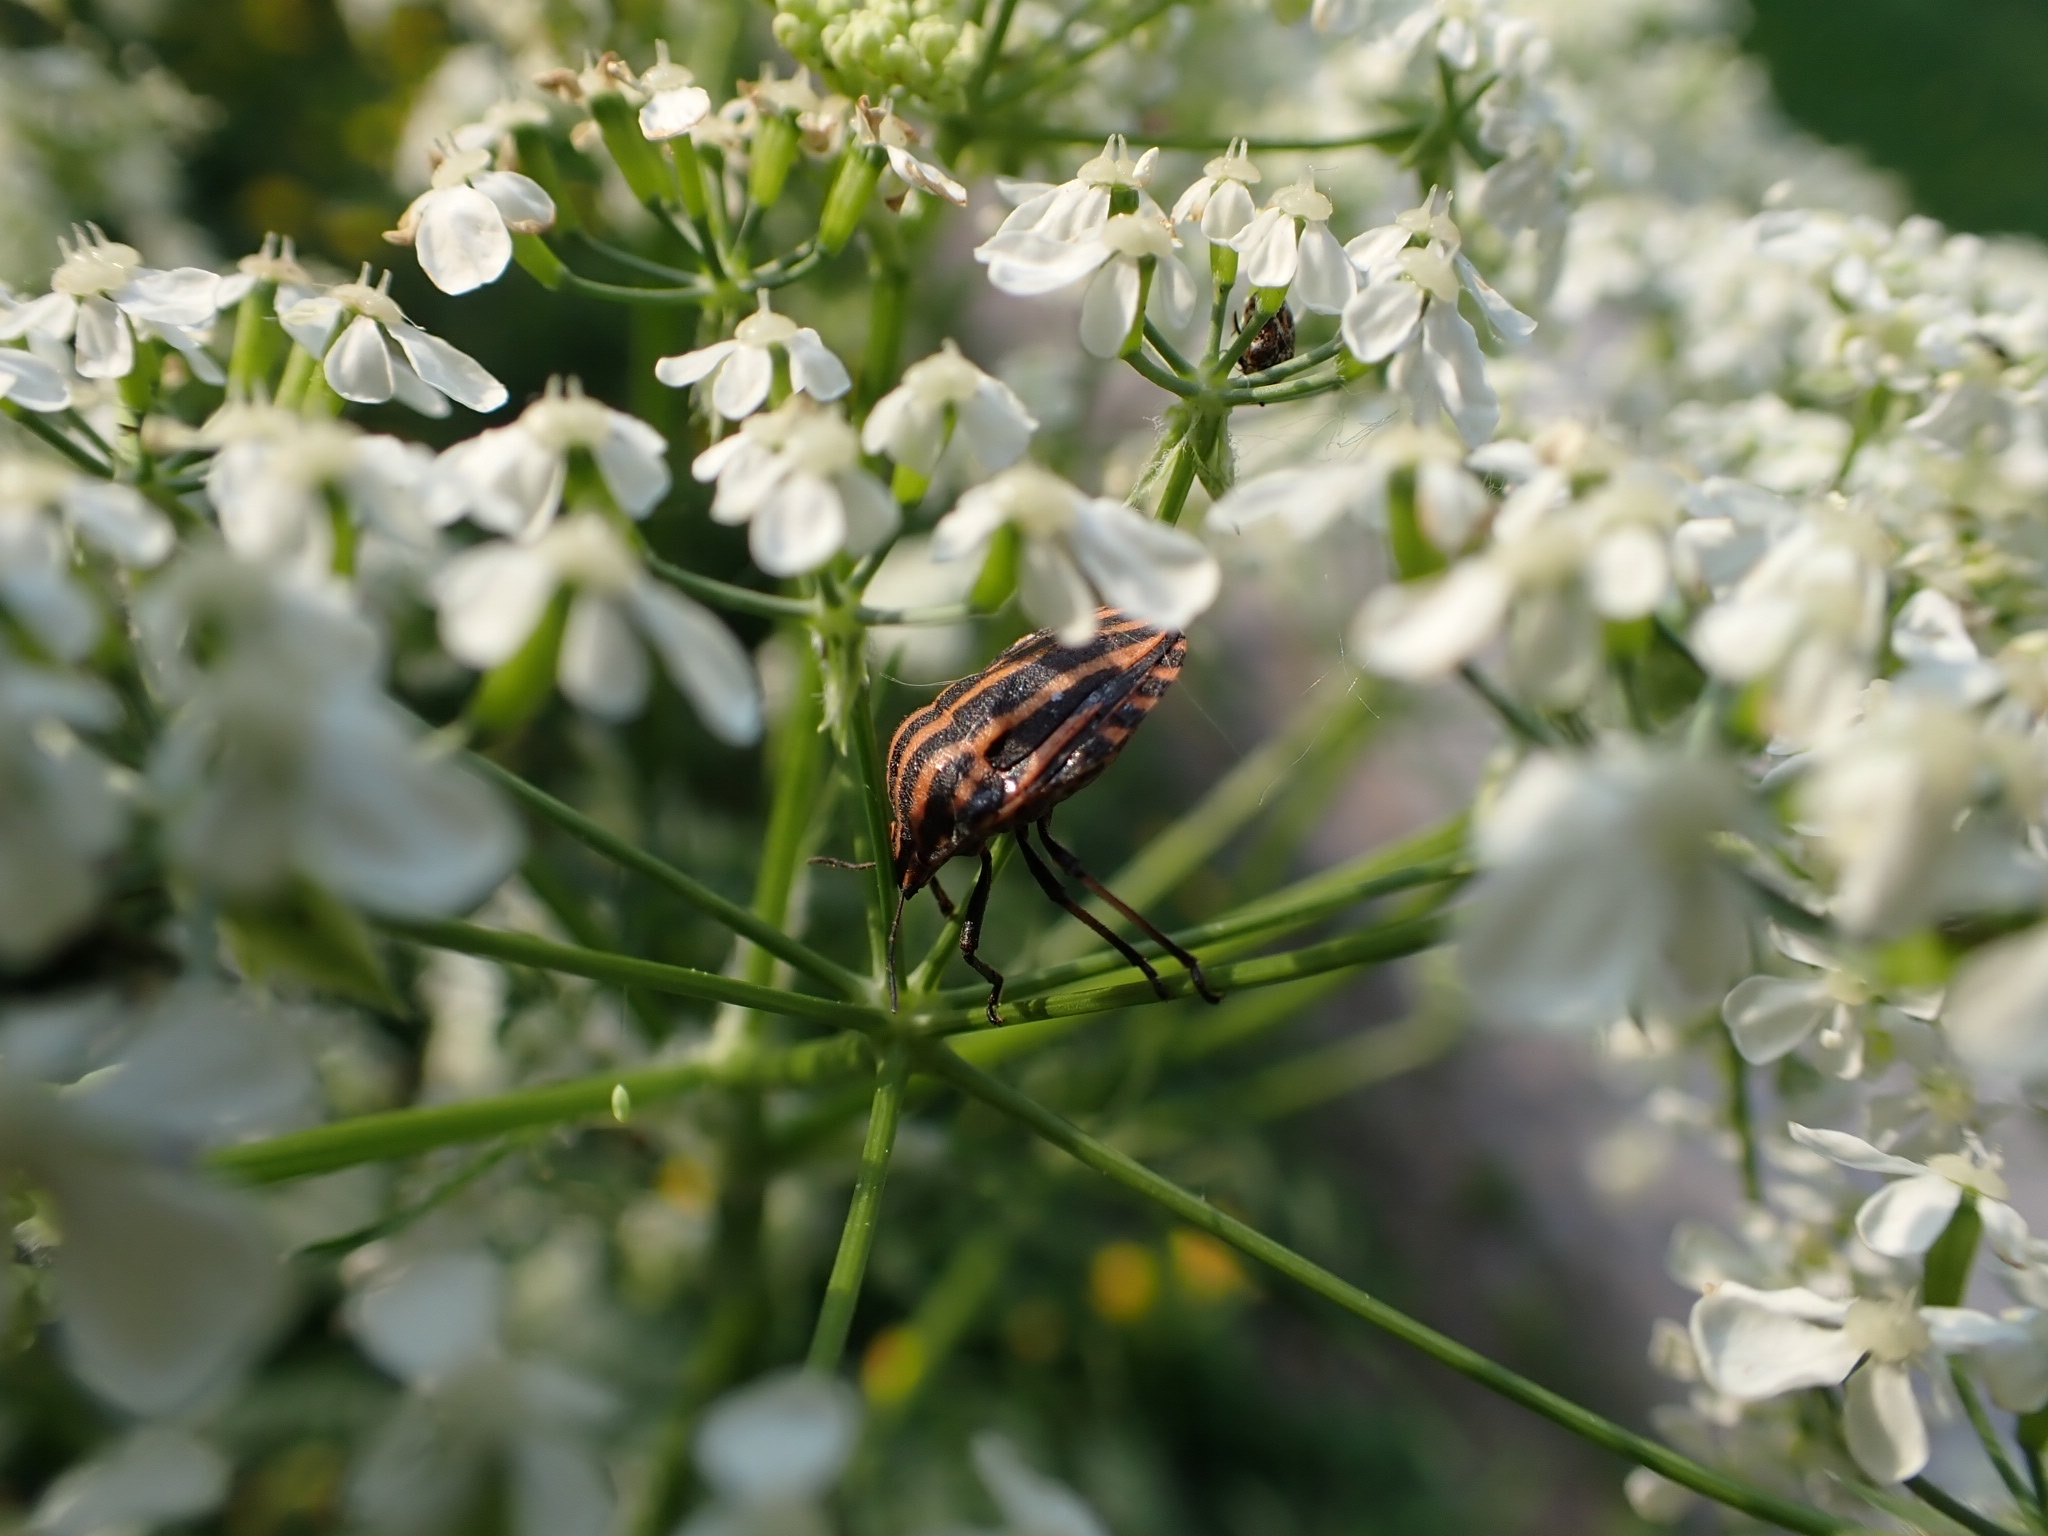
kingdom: Animalia
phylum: Arthropoda
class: Insecta
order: Hemiptera
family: Pentatomidae
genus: Graphosoma
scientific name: Graphosoma italicum
